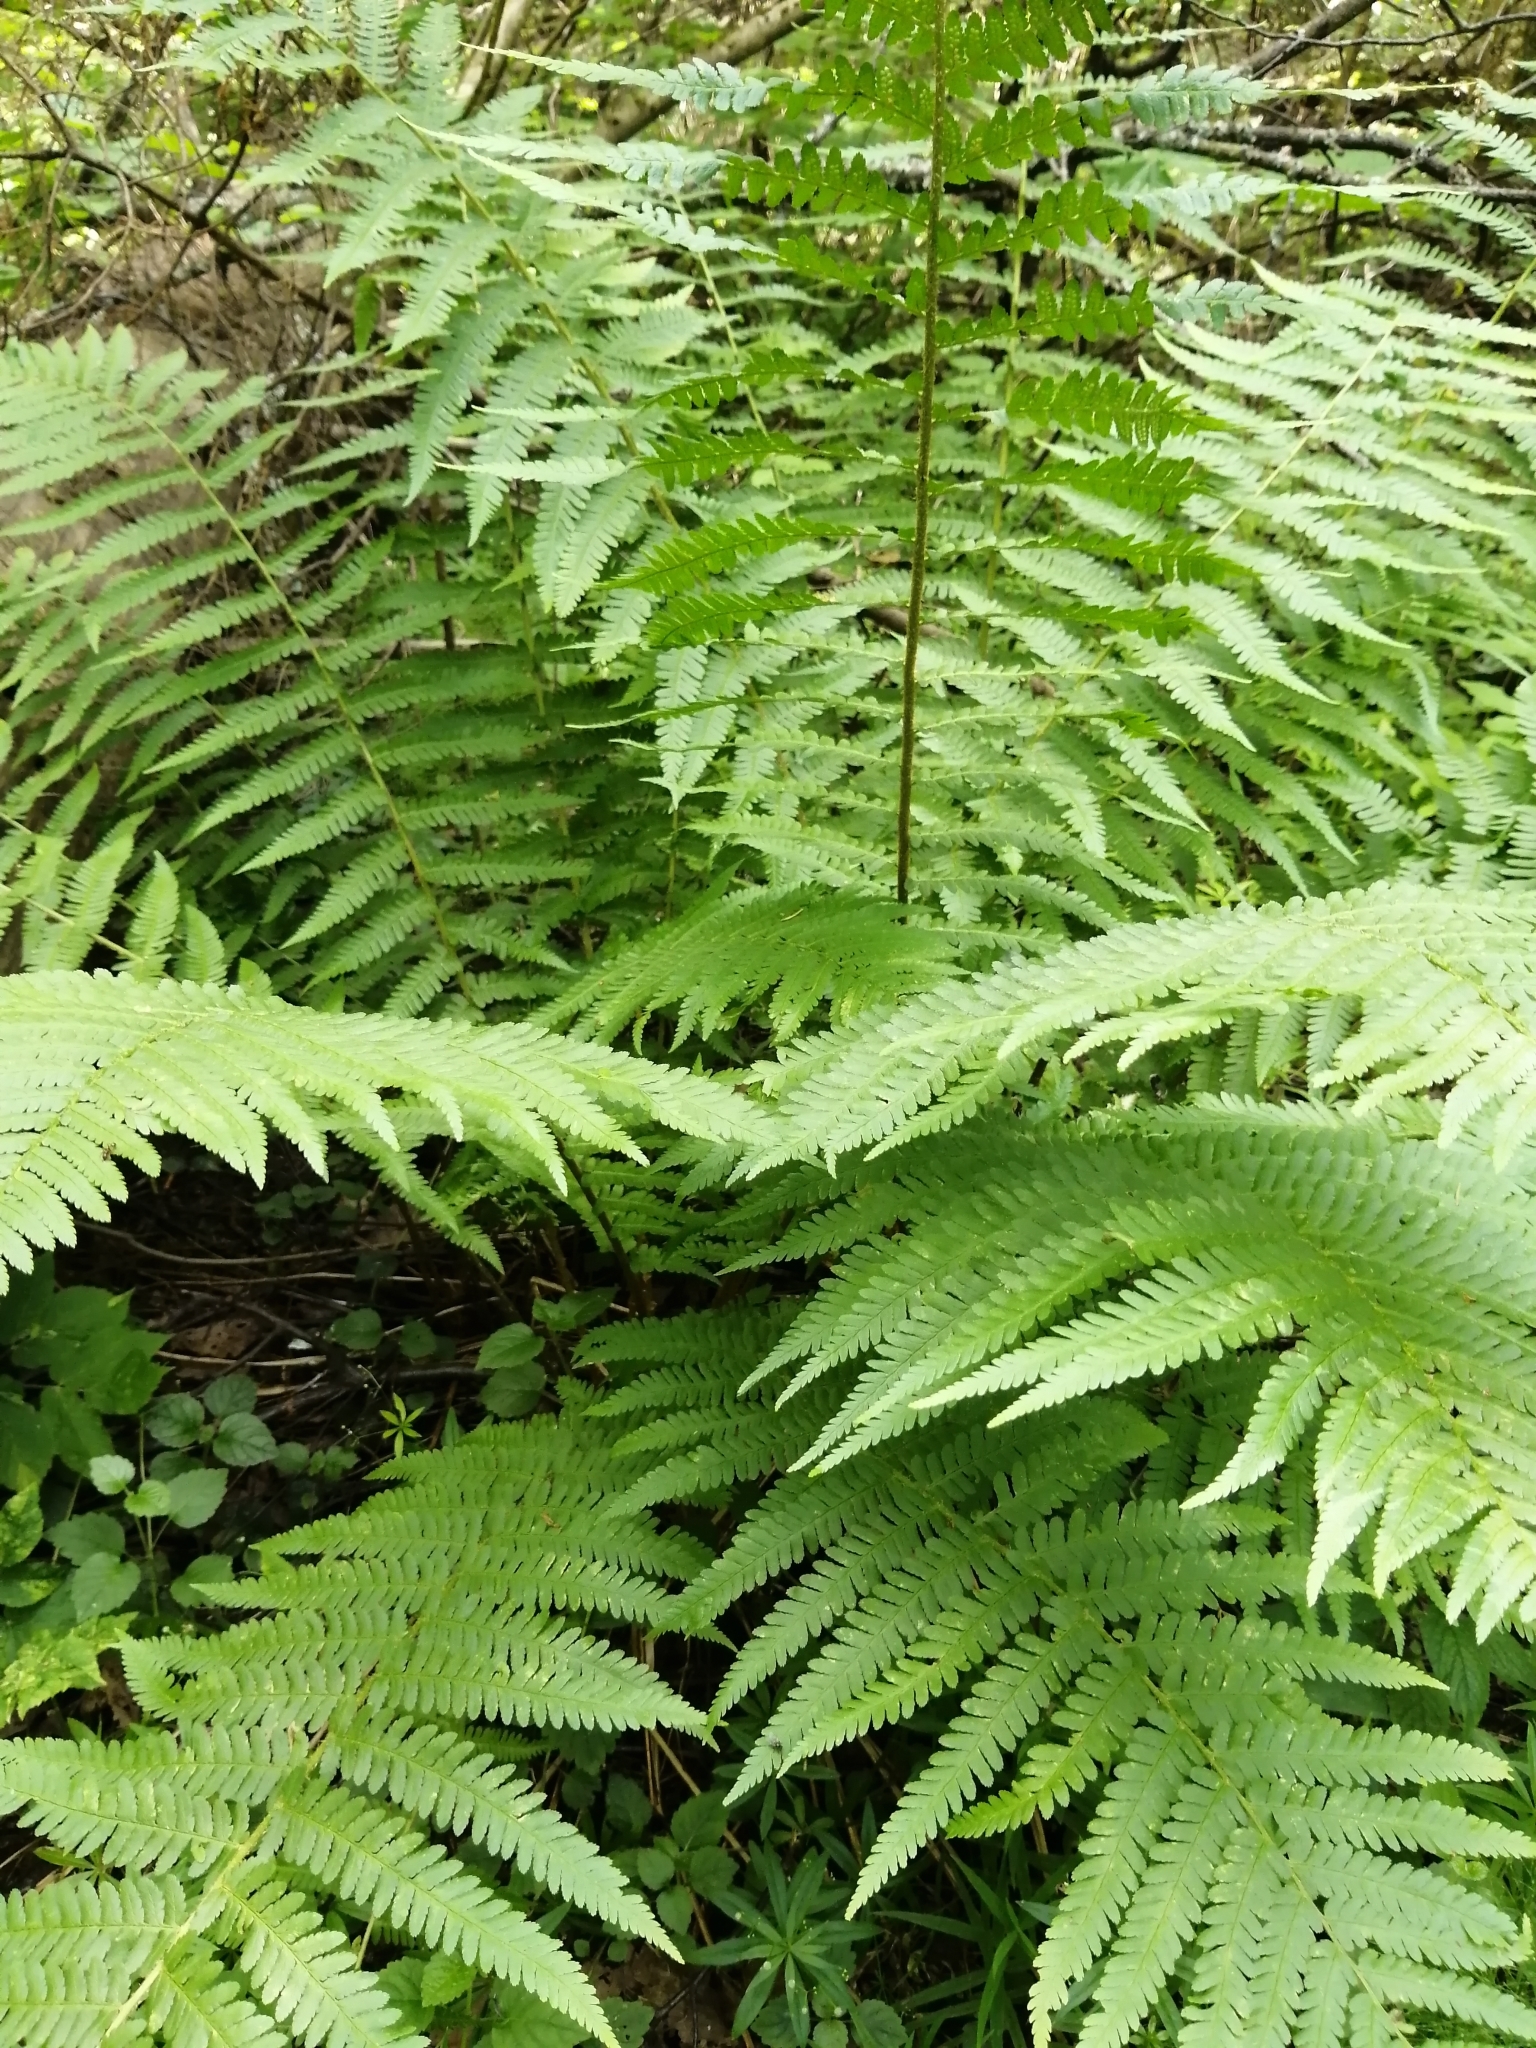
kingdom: Plantae
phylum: Tracheophyta
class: Polypodiopsida
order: Polypodiales
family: Dryopteridaceae
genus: Dryopteris
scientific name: Dryopteris filix-mas
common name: Male fern
